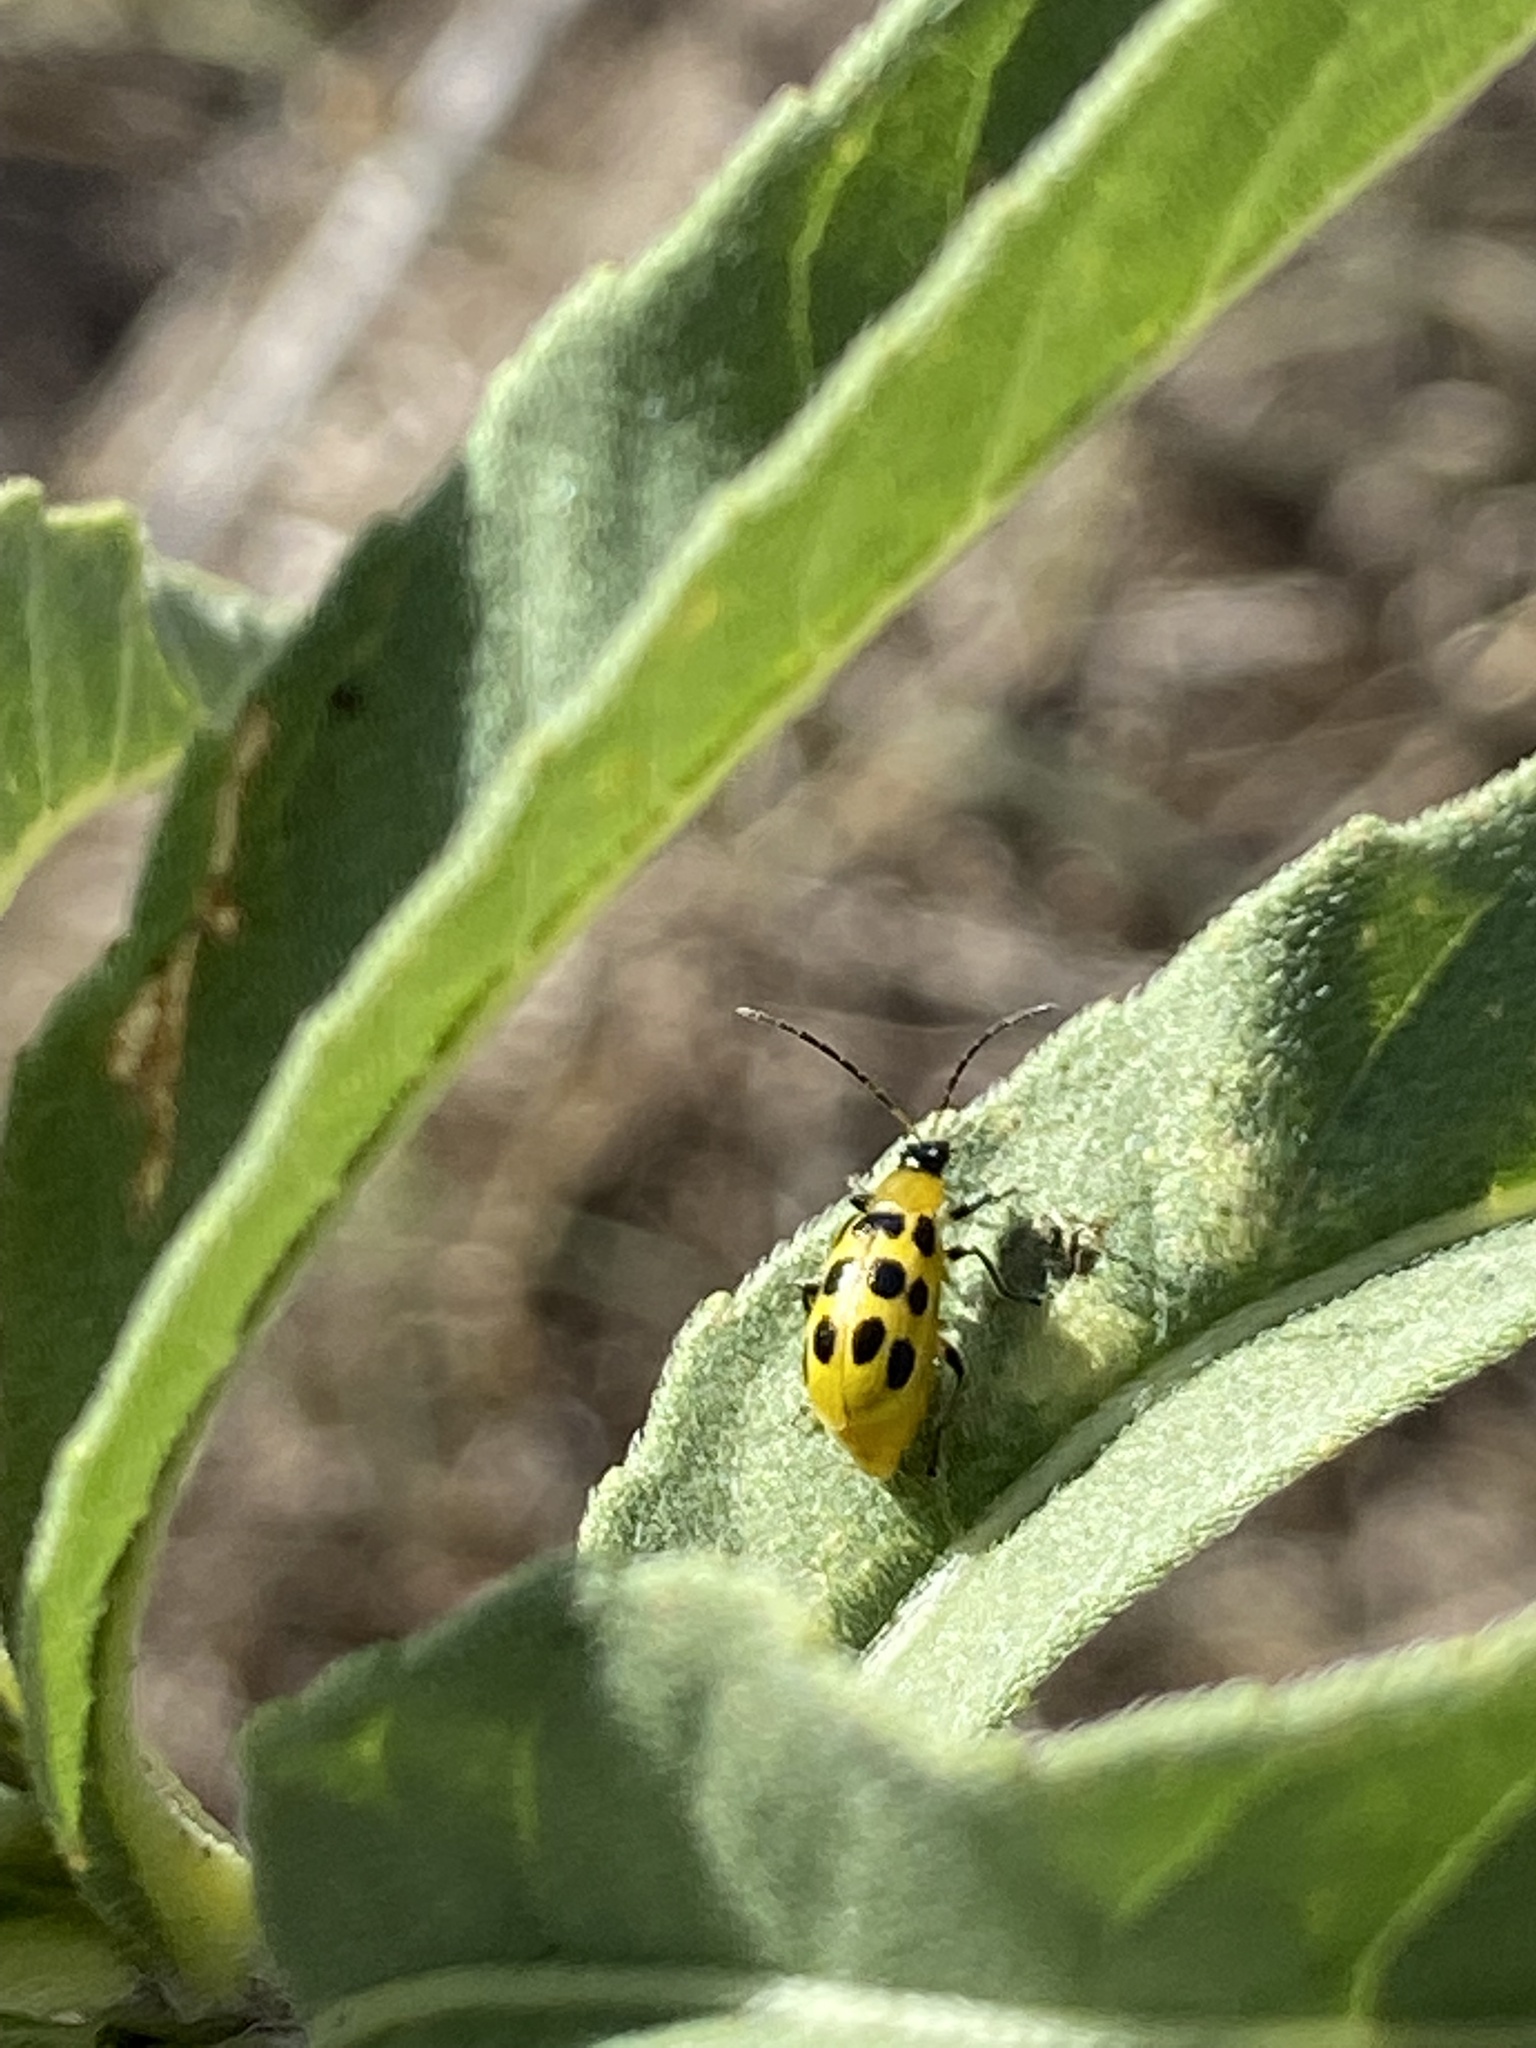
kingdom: Animalia
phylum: Arthropoda
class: Insecta
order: Coleoptera
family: Chrysomelidae
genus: Diabrotica
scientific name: Diabrotica undecimpunctata
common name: Spotted cucumber beetle
